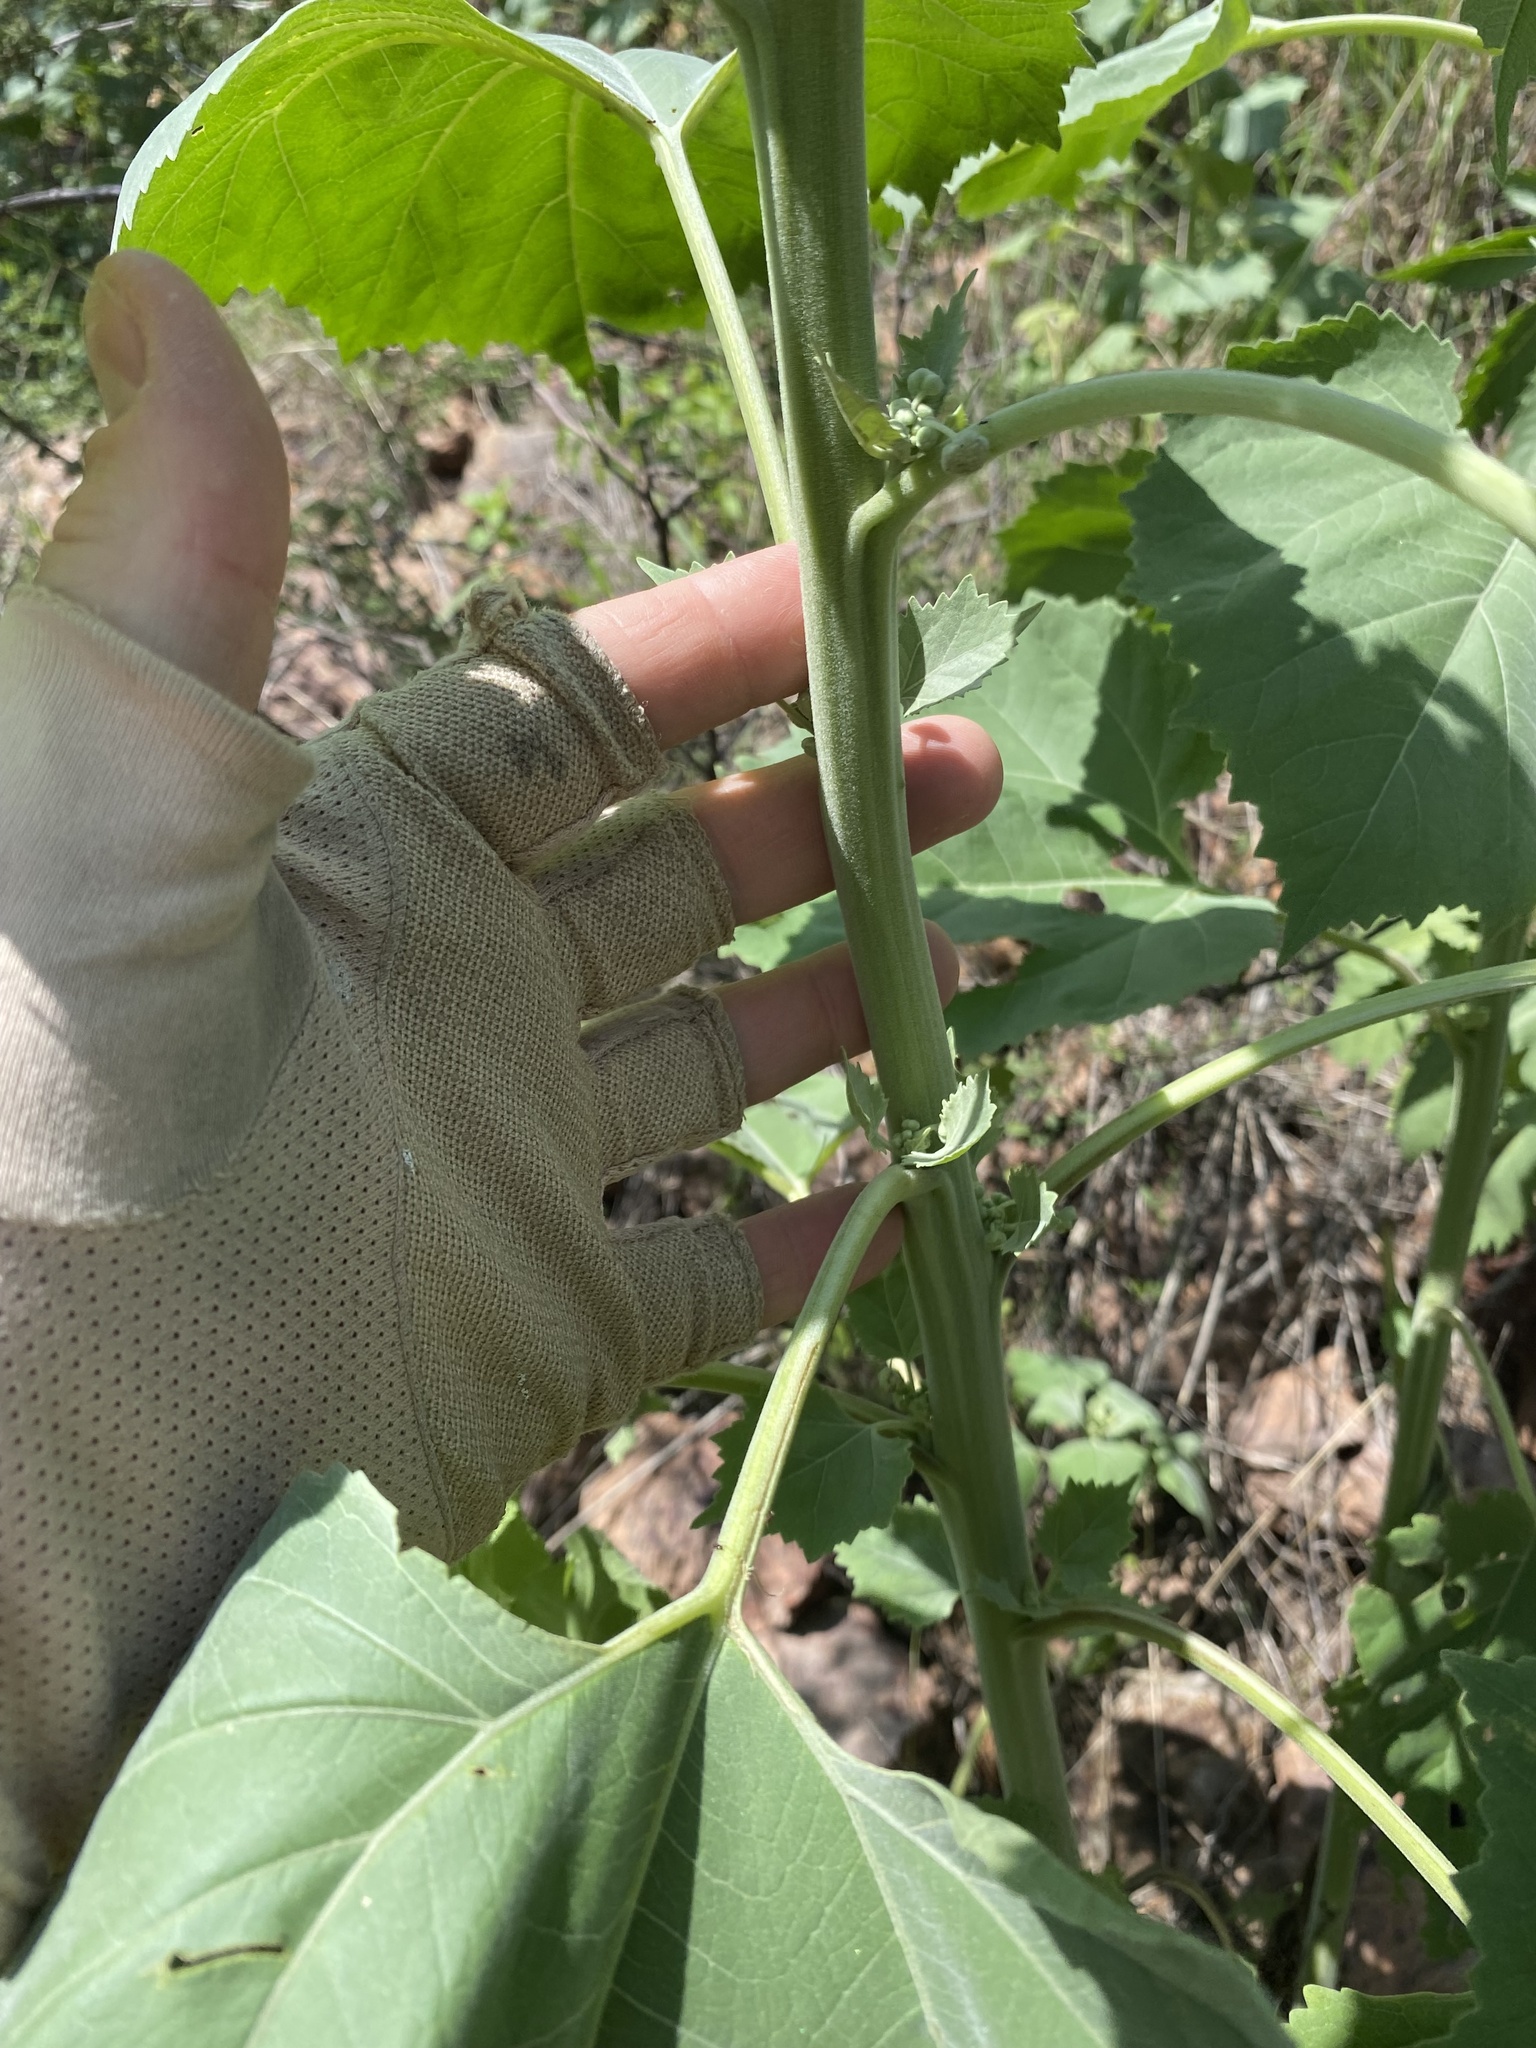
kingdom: Plantae
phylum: Tracheophyta
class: Magnoliopsida
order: Asterales
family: Asteraceae
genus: Parthenice
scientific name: Parthenice mollis
